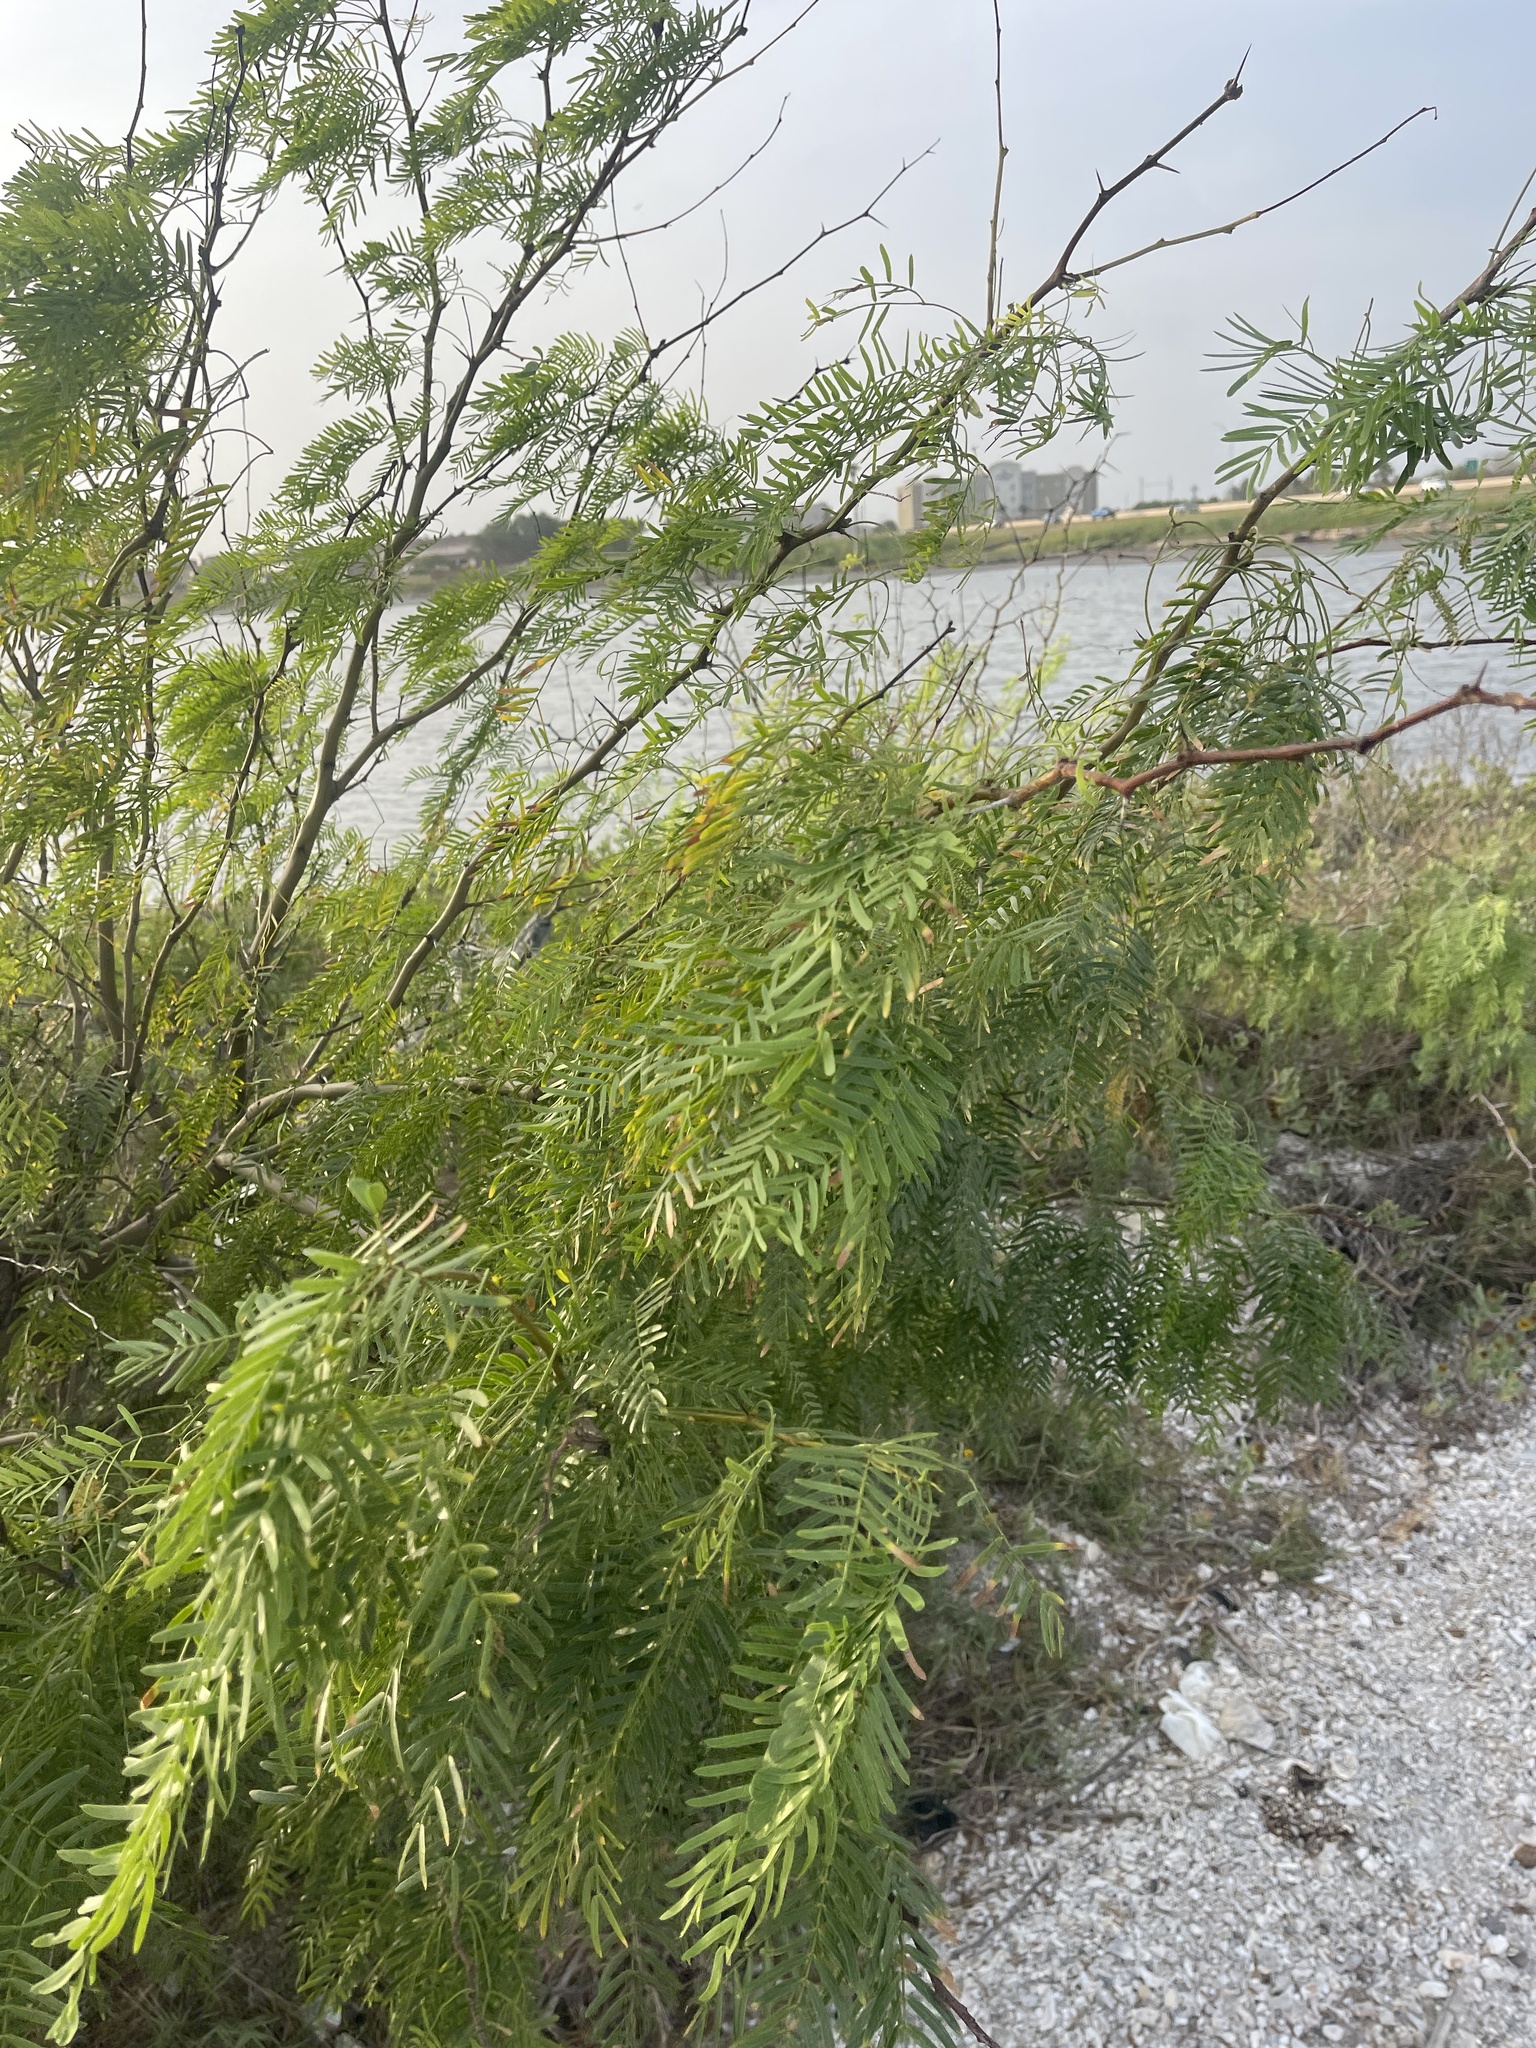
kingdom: Plantae
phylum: Tracheophyta
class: Magnoliopsida
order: Fabales
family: Fabaceae
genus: Prosopis
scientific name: Prosopis glandulosa
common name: Honey mesquite
